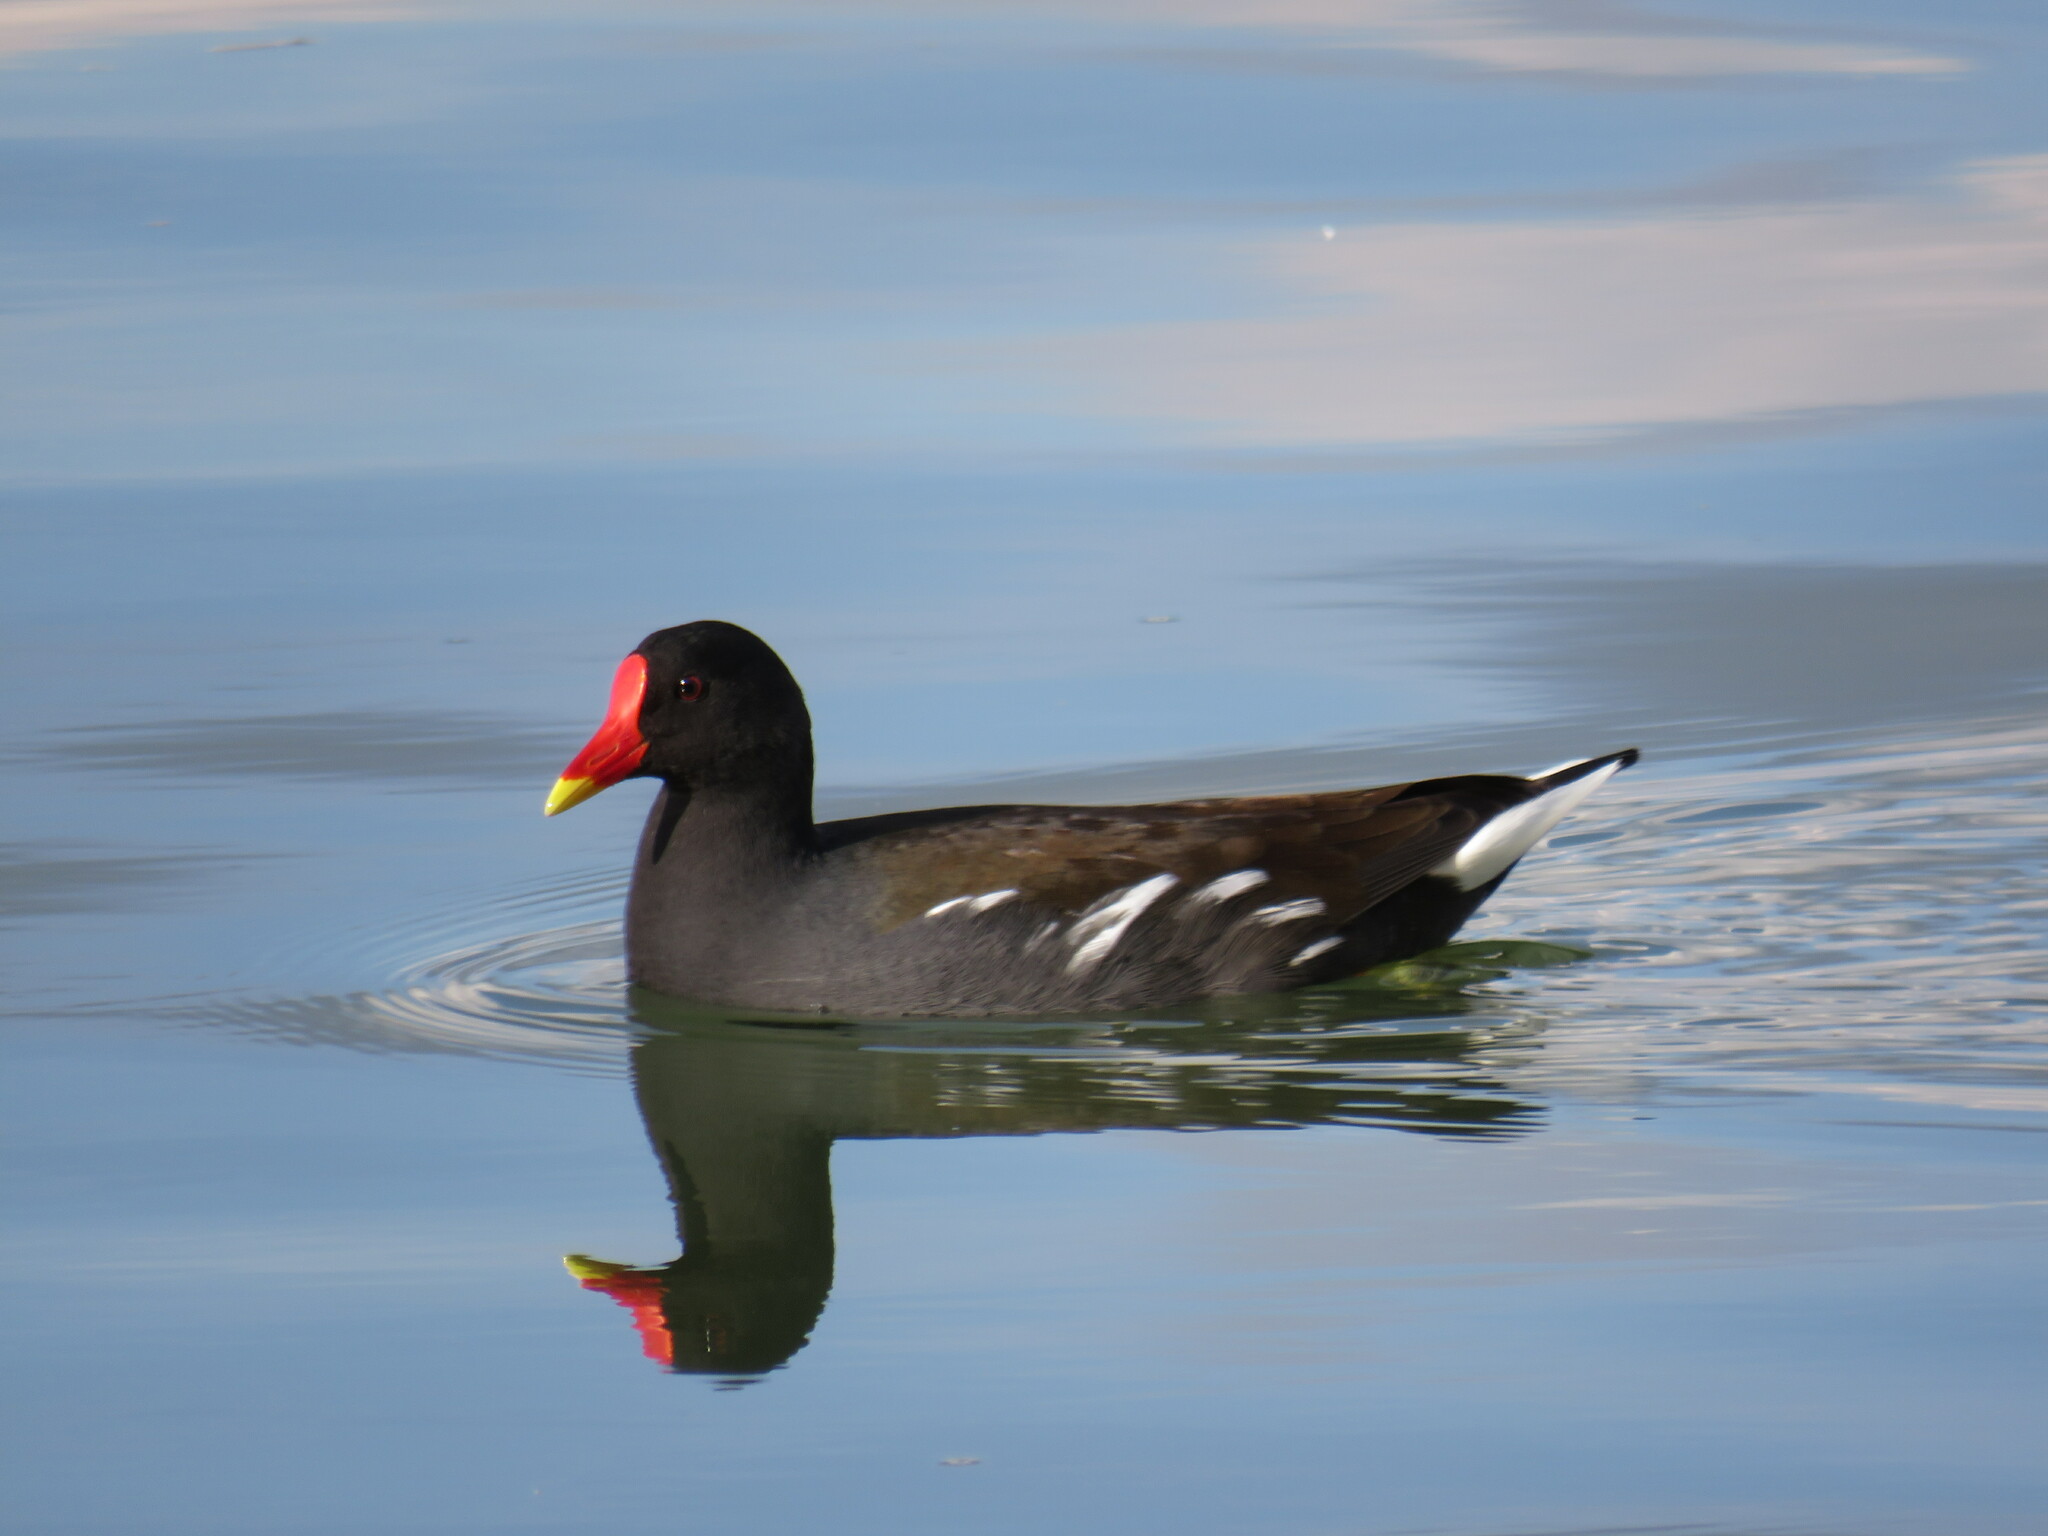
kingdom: Animalia
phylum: Chordata
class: Aves
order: Gruiformes
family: Rallidae
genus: Gallinula
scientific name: Gallinula chloropus
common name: Common moorhen
